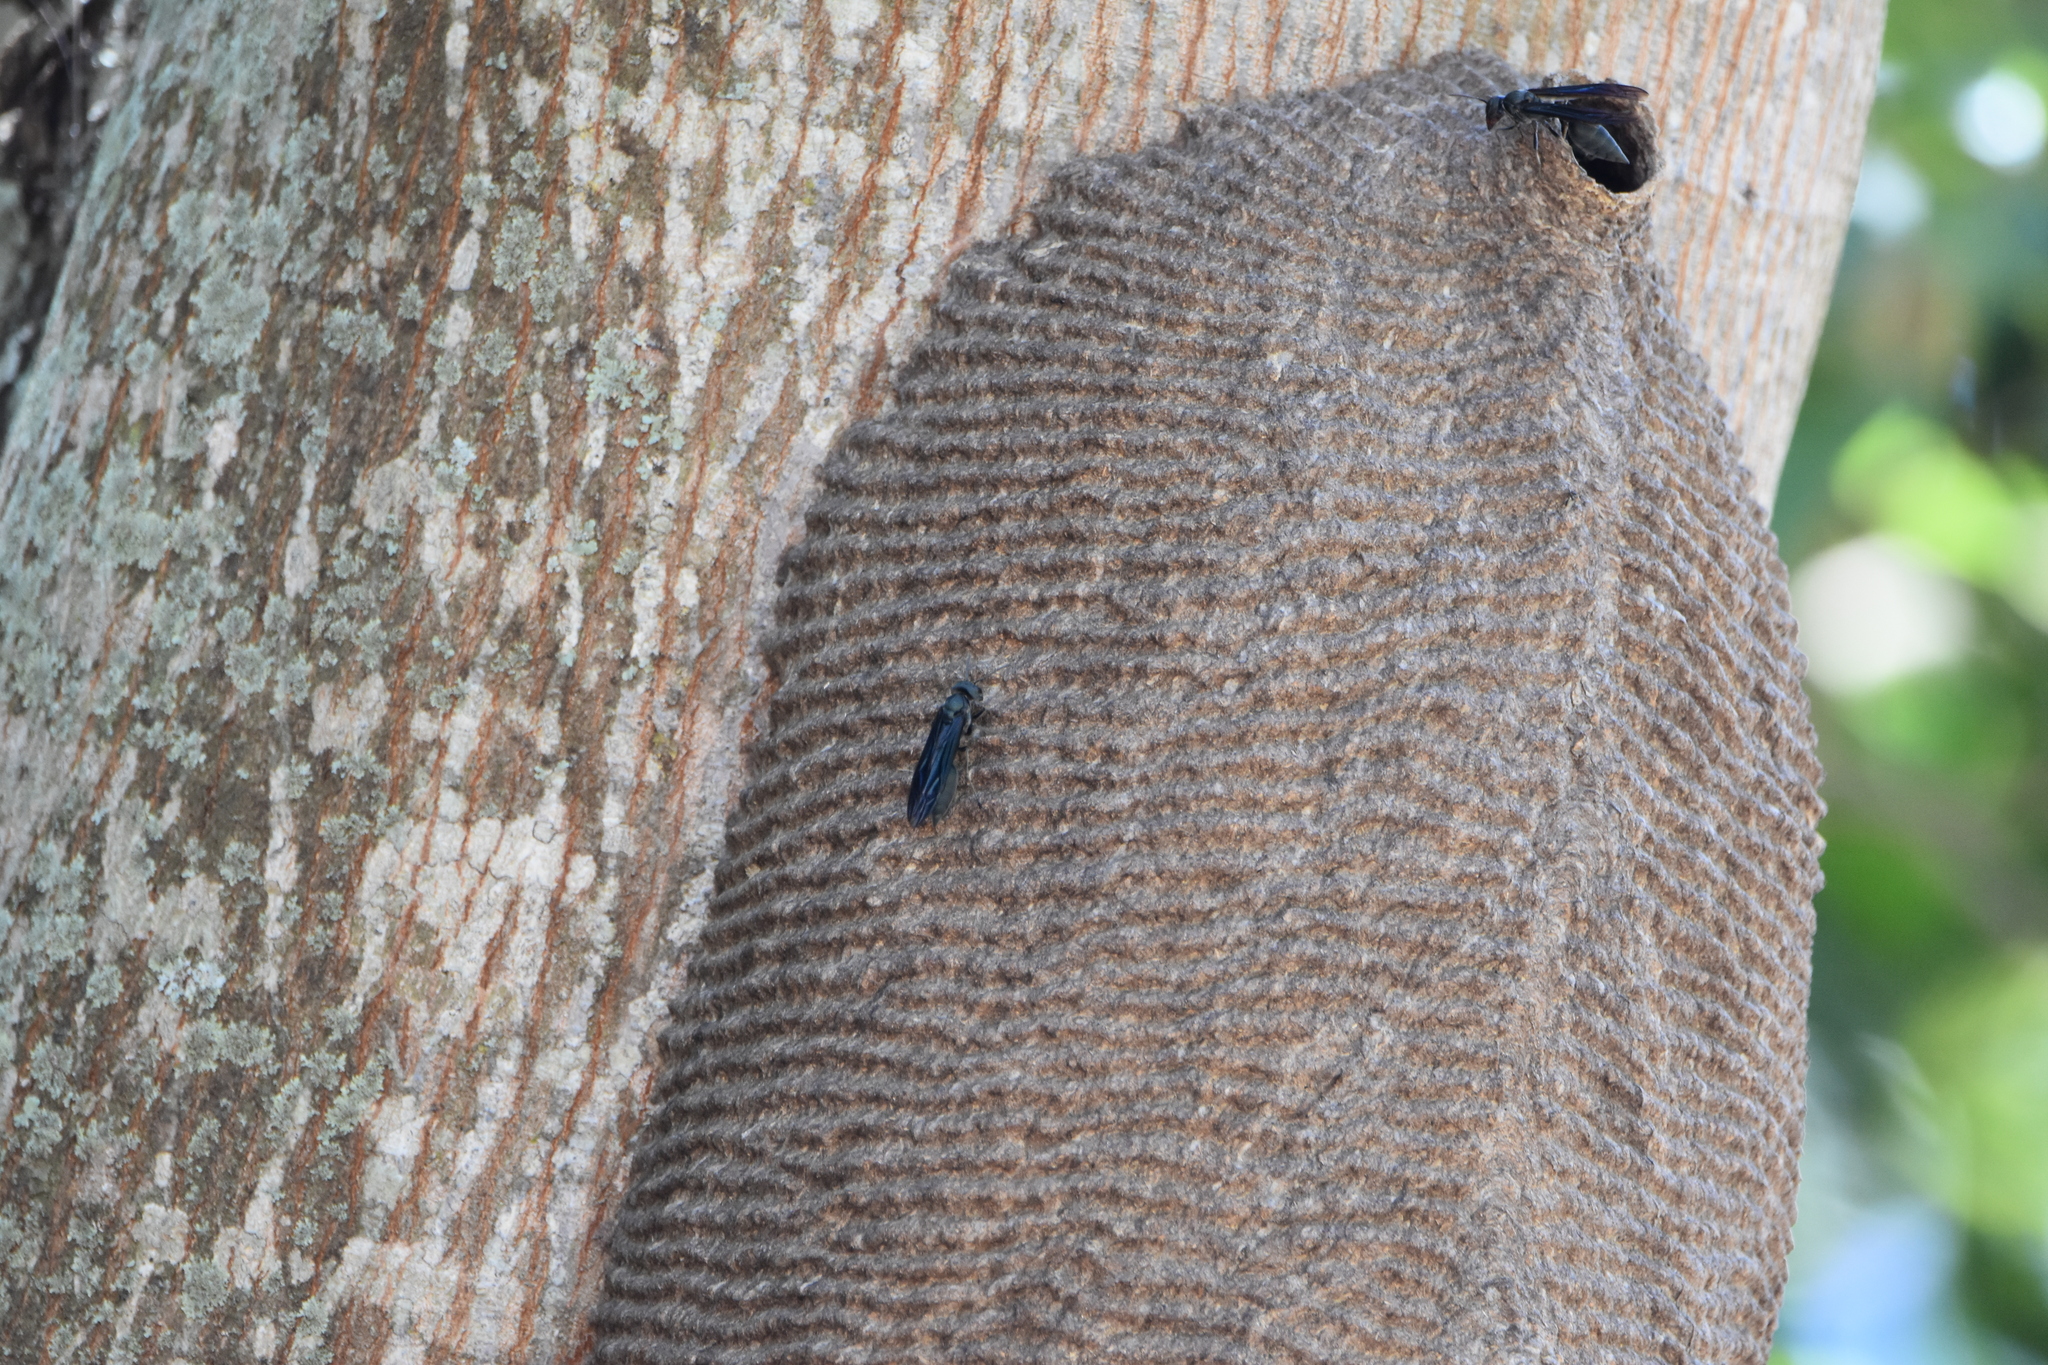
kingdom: Animalia
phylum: Arthropoda
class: Insecta
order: Hymenoptera
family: Vespidae
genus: Synoeca
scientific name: Synoeca cyanea
